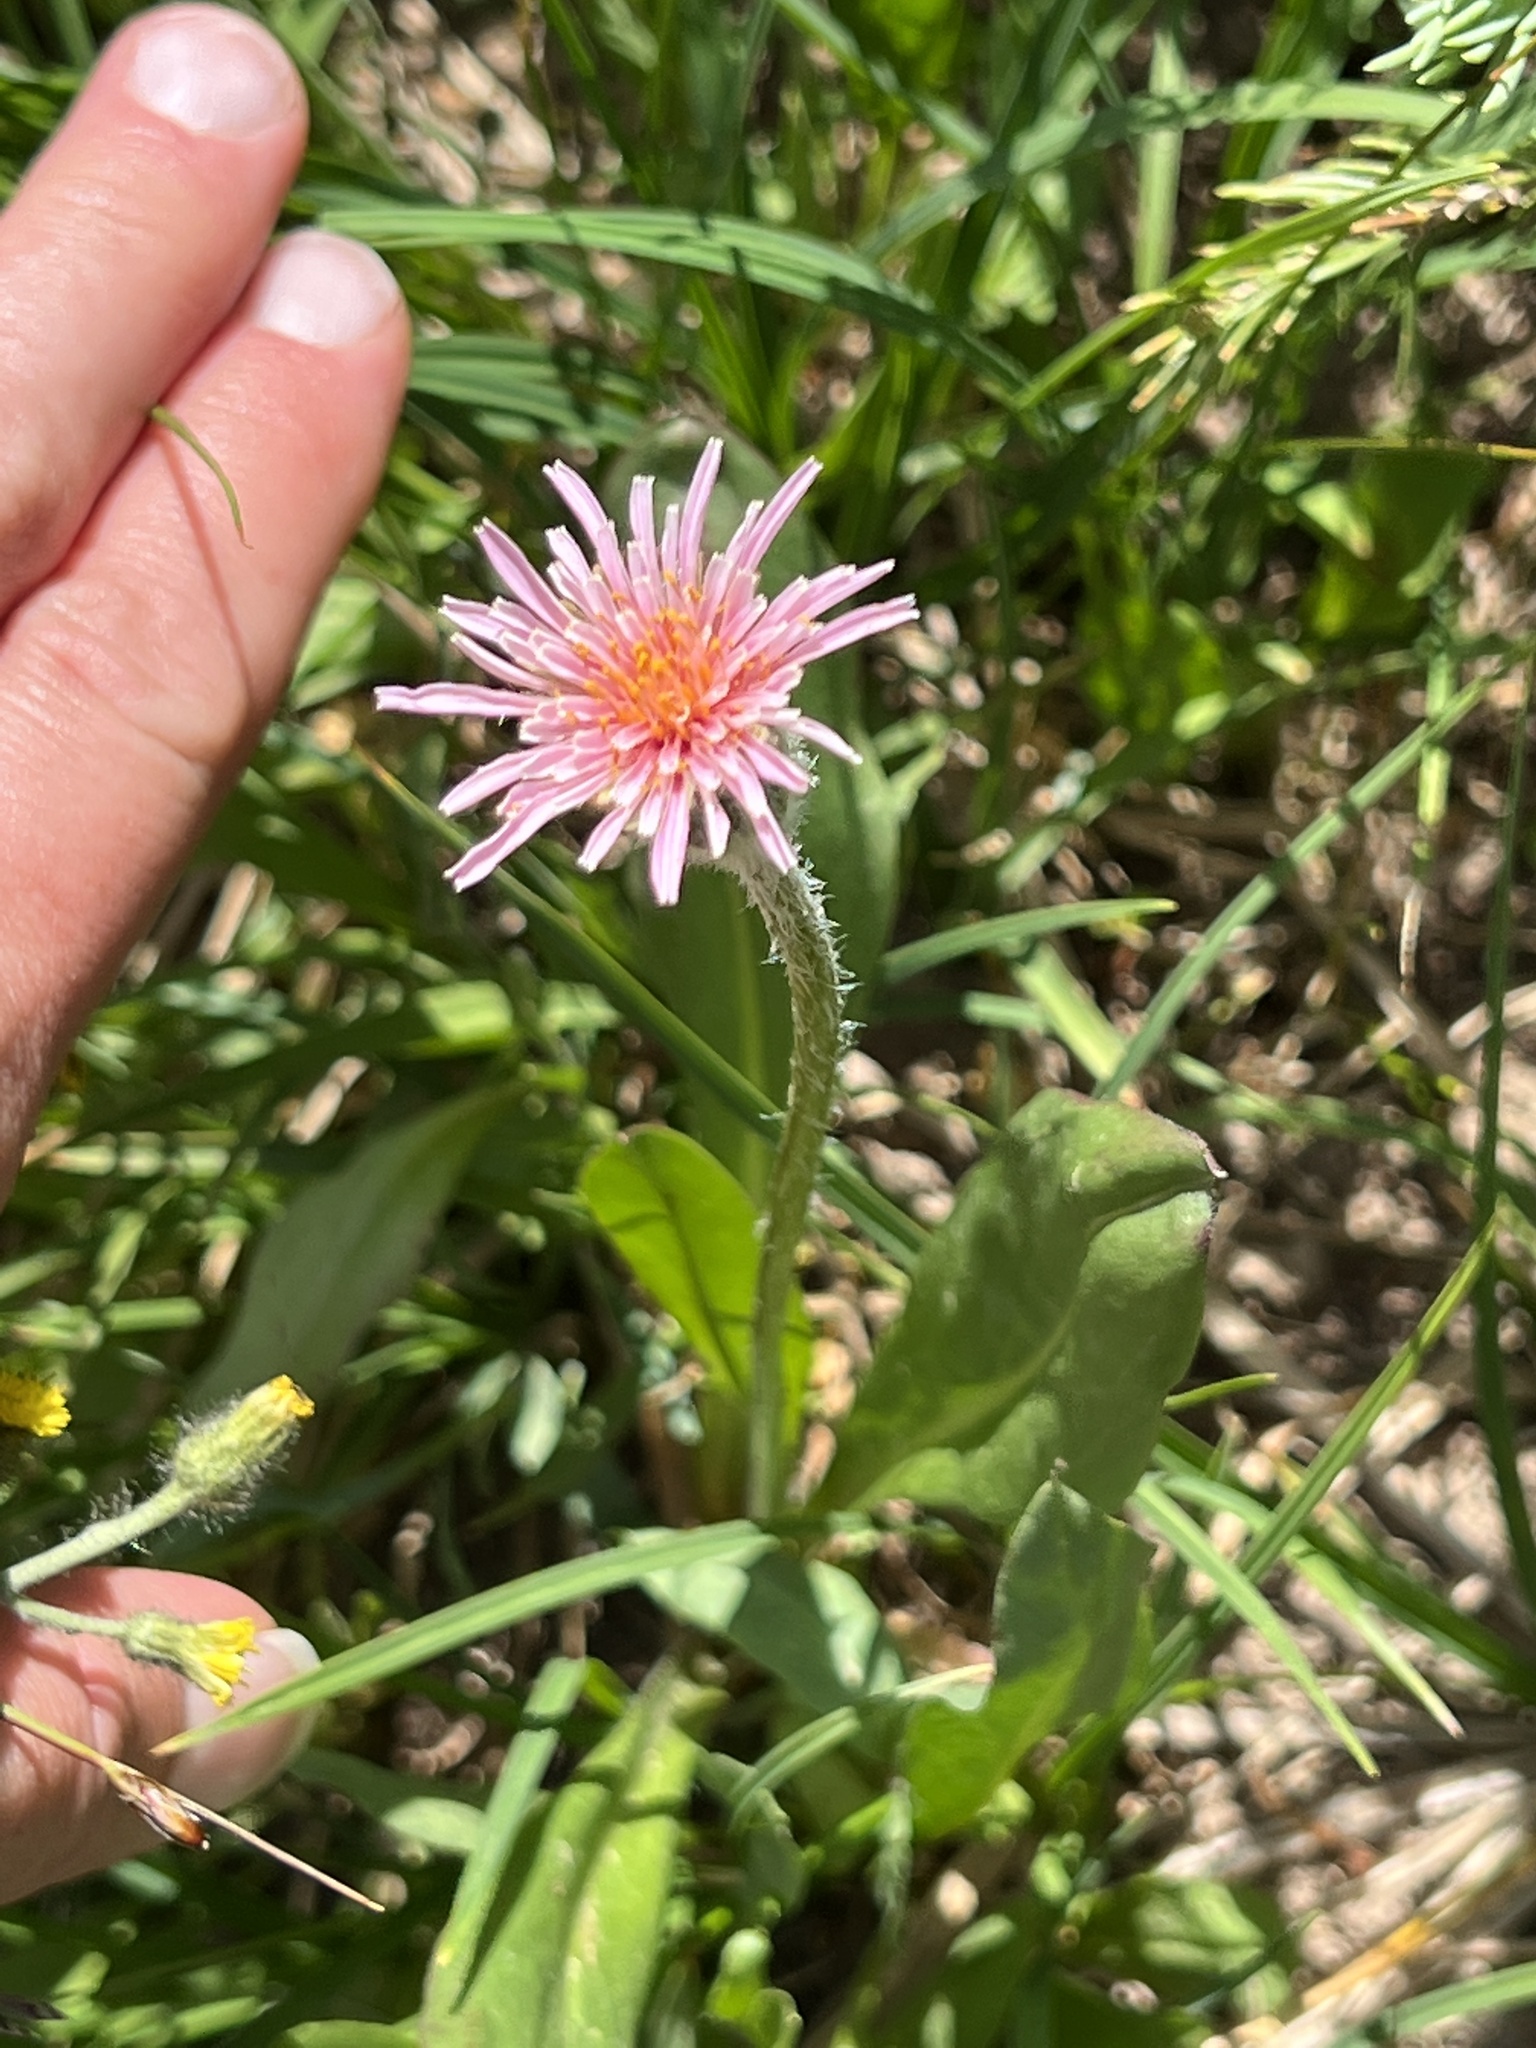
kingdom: Plantae
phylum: Tracheophyta
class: Magnoliopsida
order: Asterales
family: Asteraceae
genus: Agoseris
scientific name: Agoseris aurantiaca
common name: Mountain agoseris
